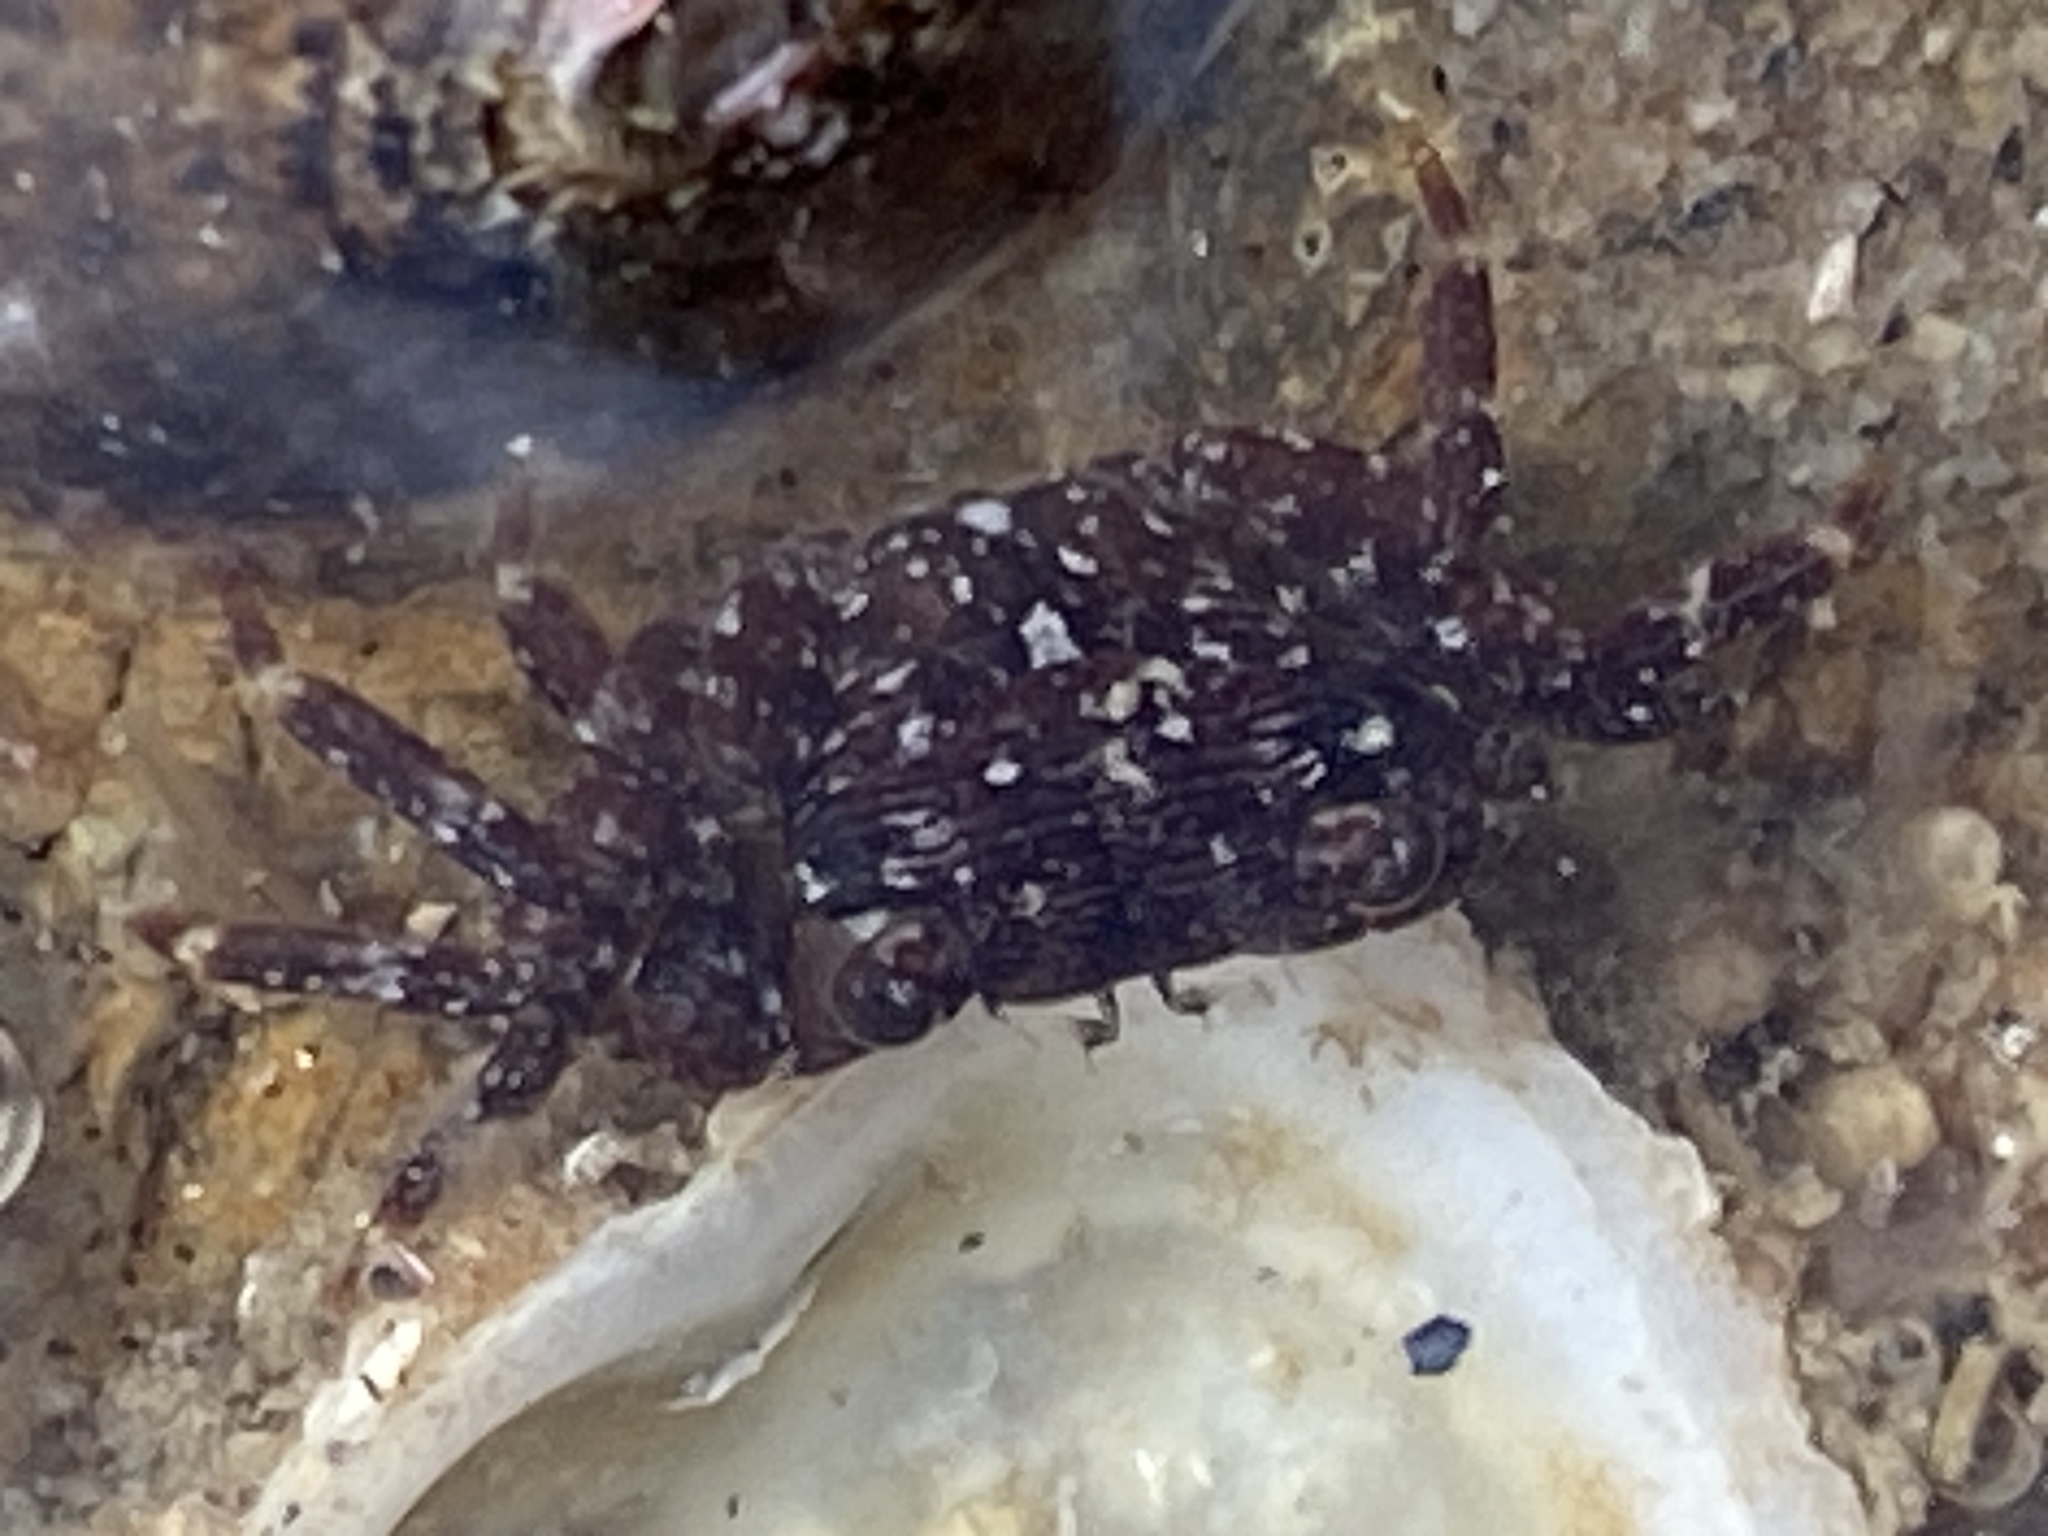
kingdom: Animalia
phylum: Arthropoda
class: Malacostraca
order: Decapoda
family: Grapsidae
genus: Pachygrapsus
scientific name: Pachygrapsus crassipes
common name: Striped shore crab
